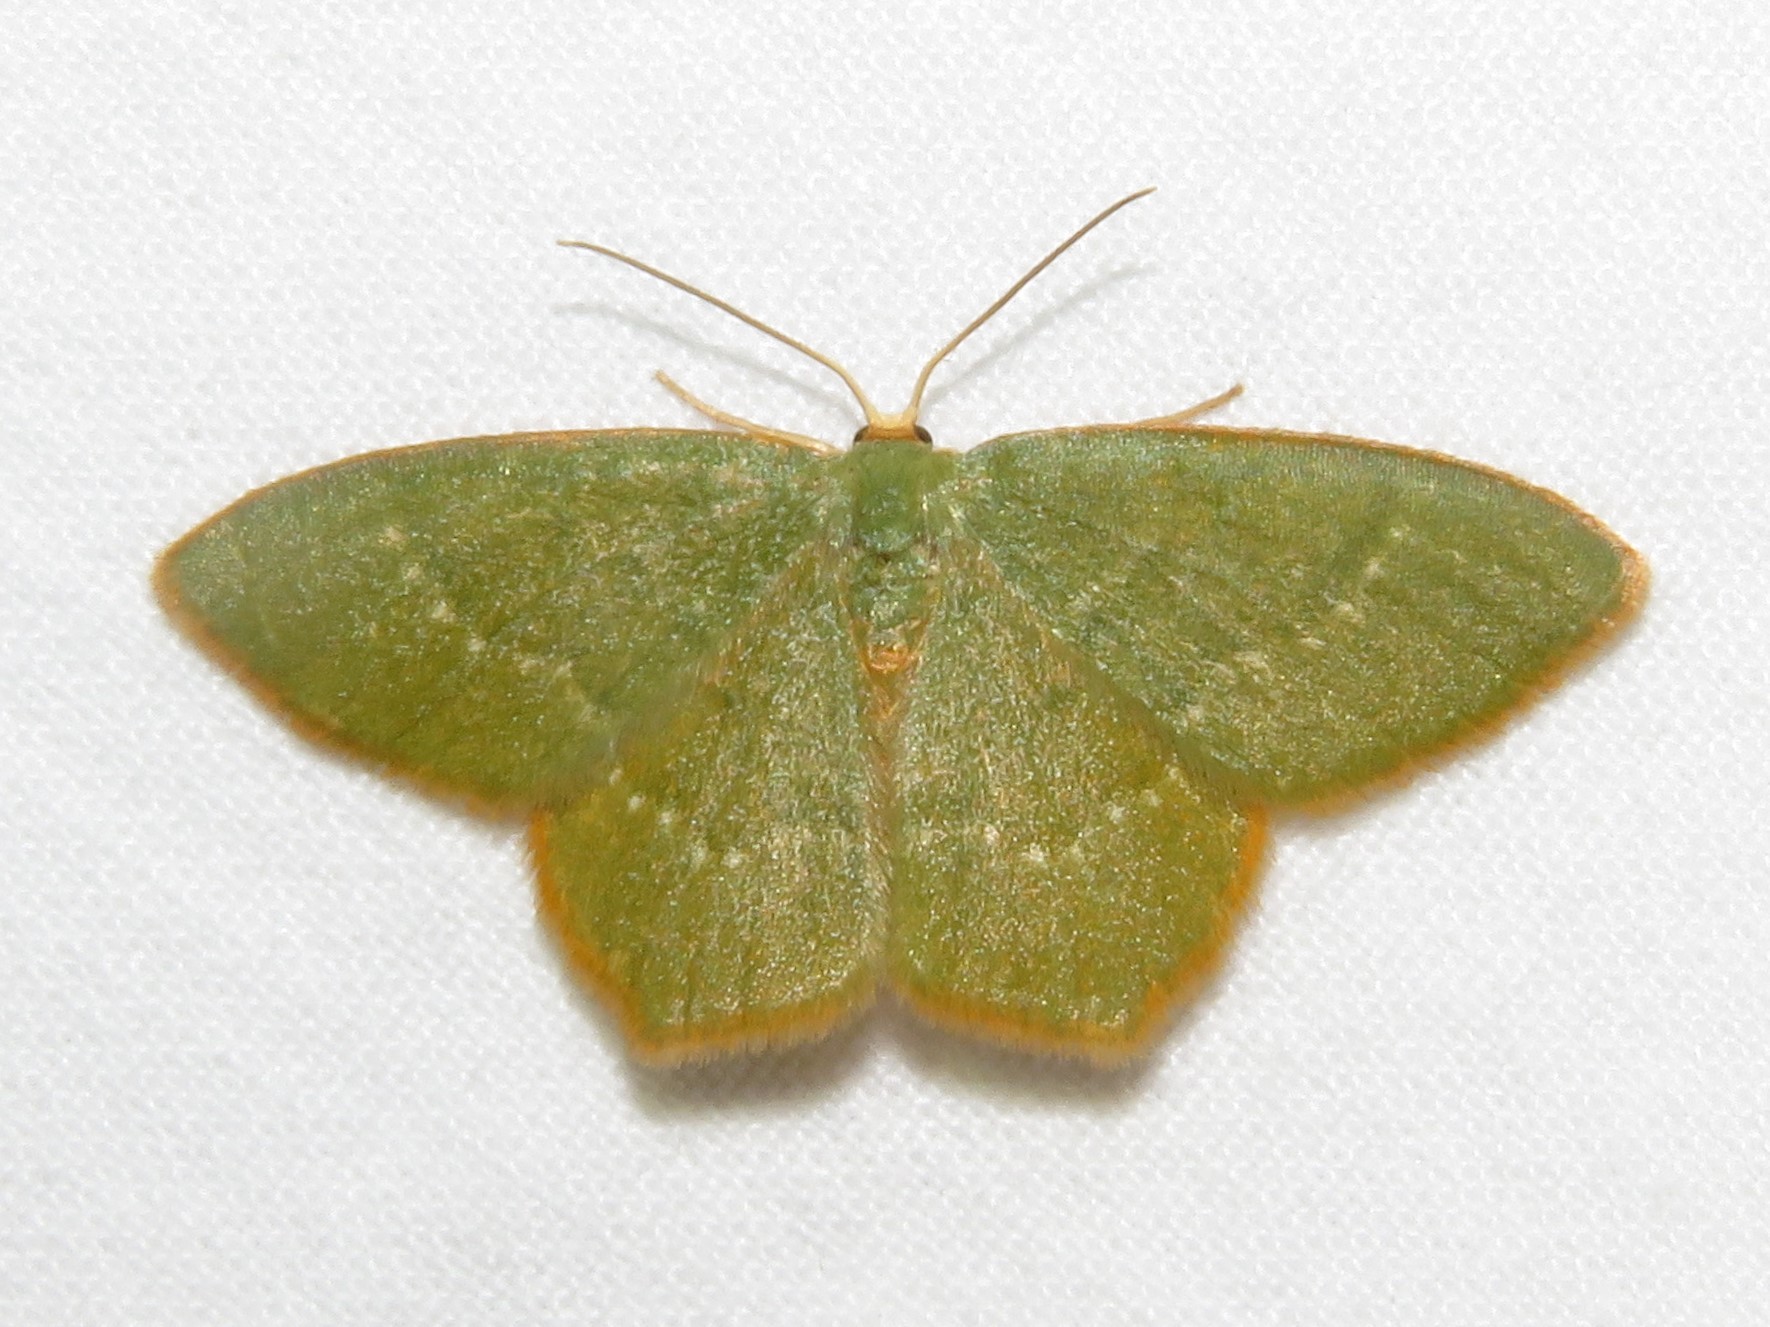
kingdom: Animalia
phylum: Arthropoda
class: Insecta
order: Lepidoptera
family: Geometridae
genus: Thalera
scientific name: Thalera pistasciaria
